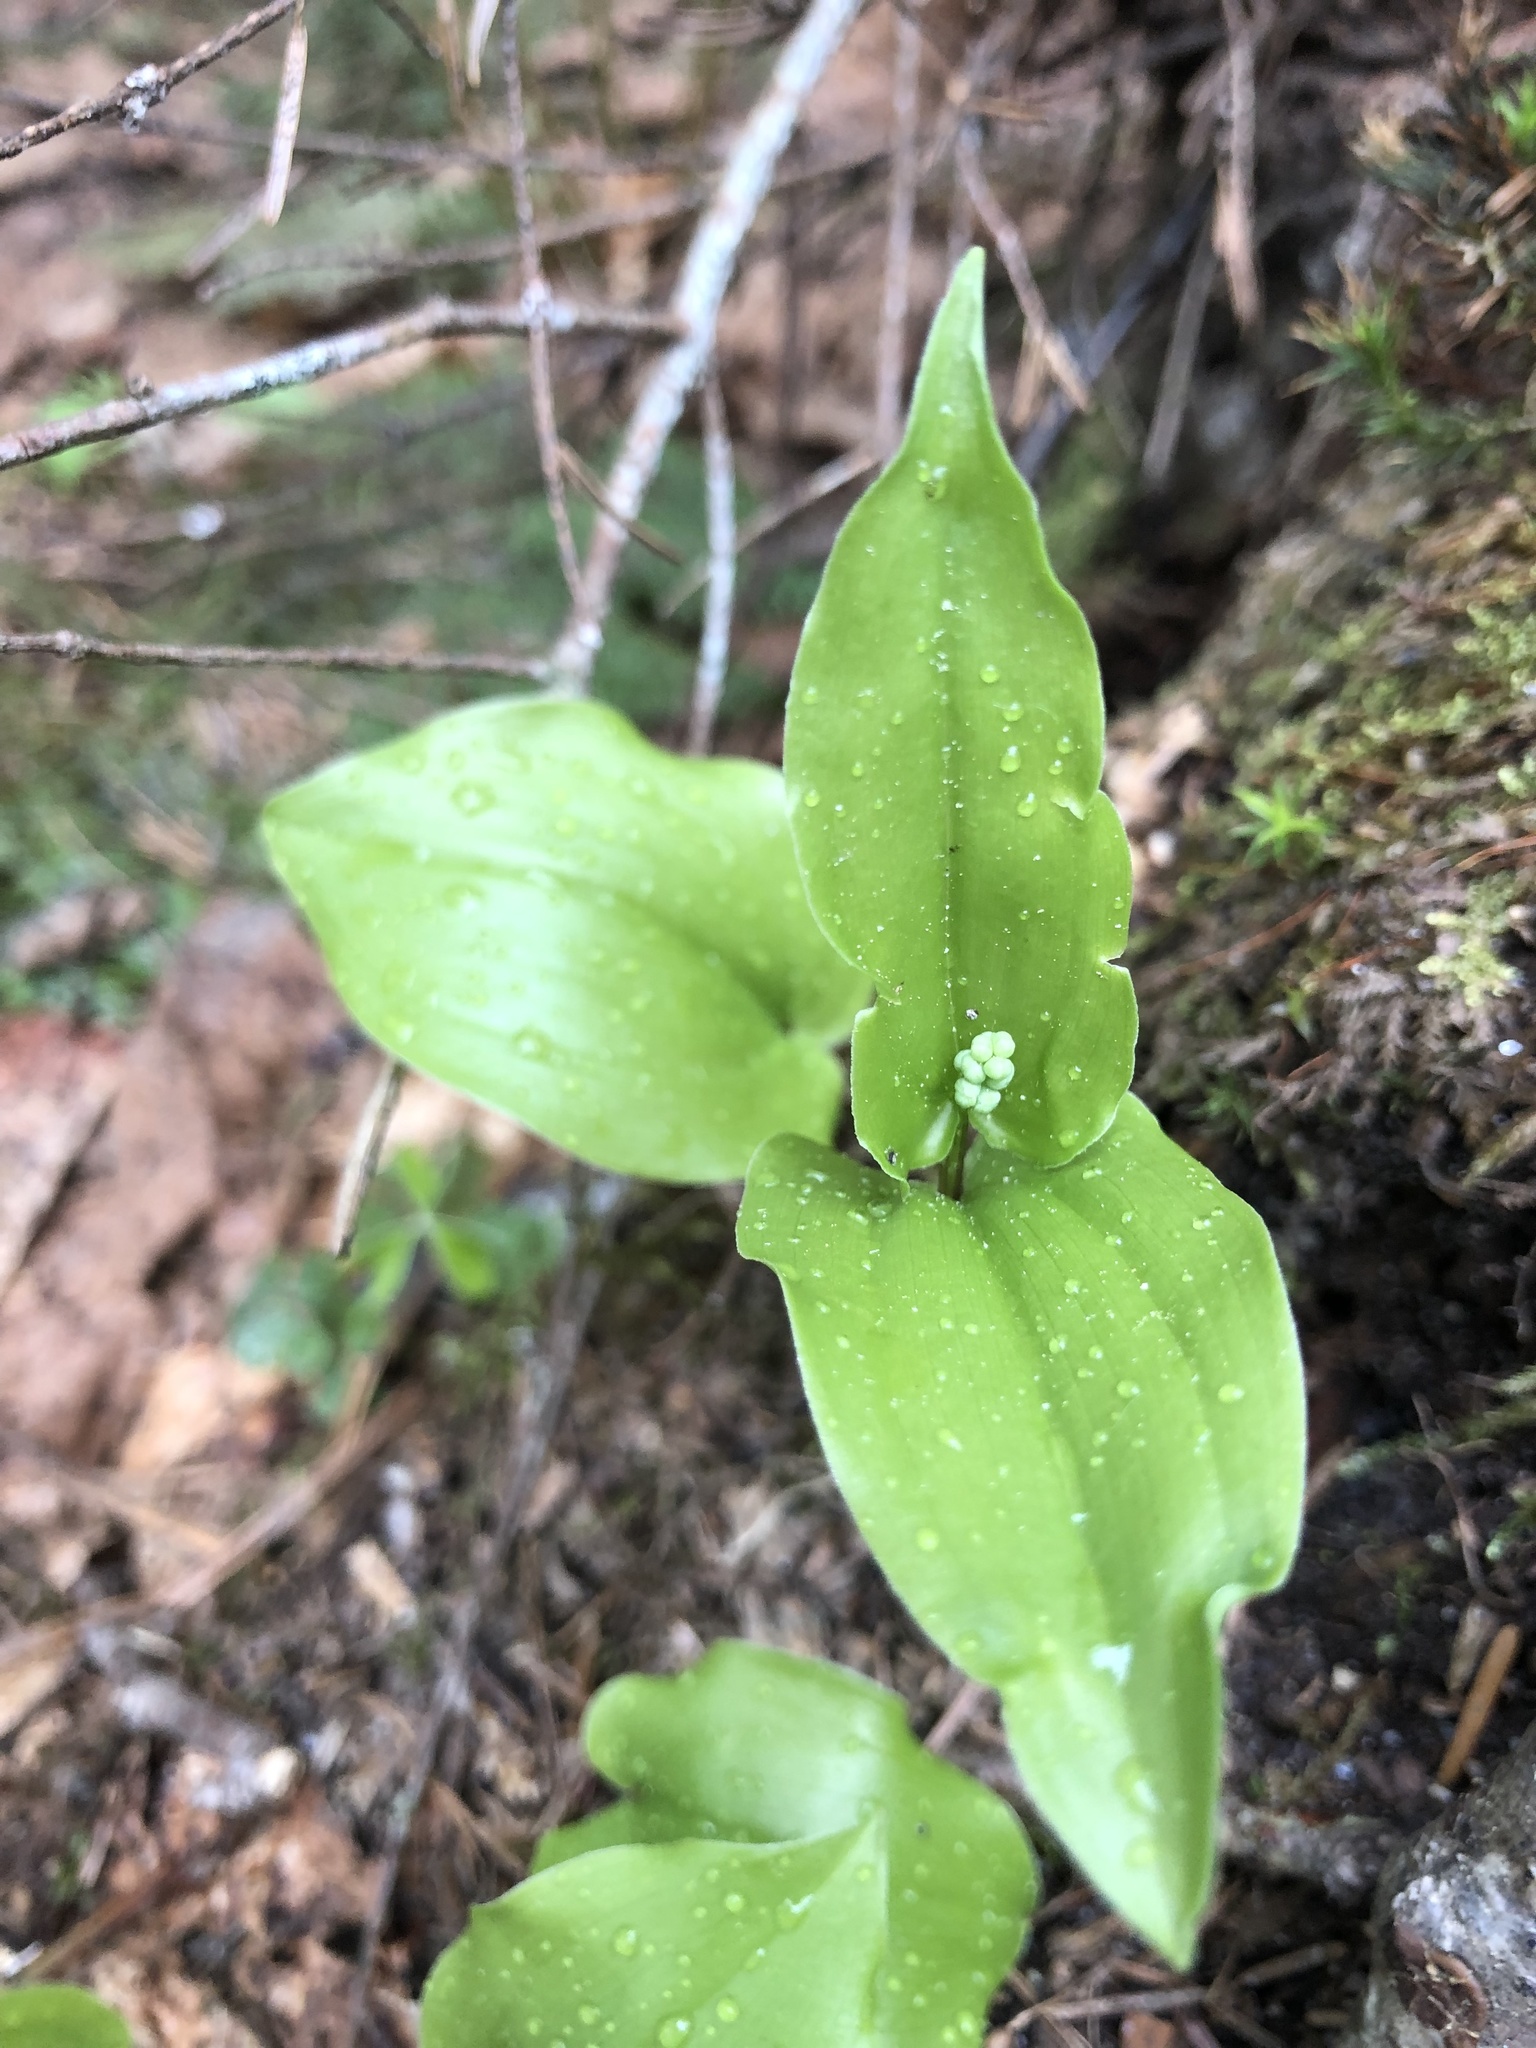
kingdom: Plantae
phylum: Tracheophyta
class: Liliopsida
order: Asparagales
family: Asparagaceae
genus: Maianthemum
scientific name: Maianthemum canadense
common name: False lily-of-the-valley
